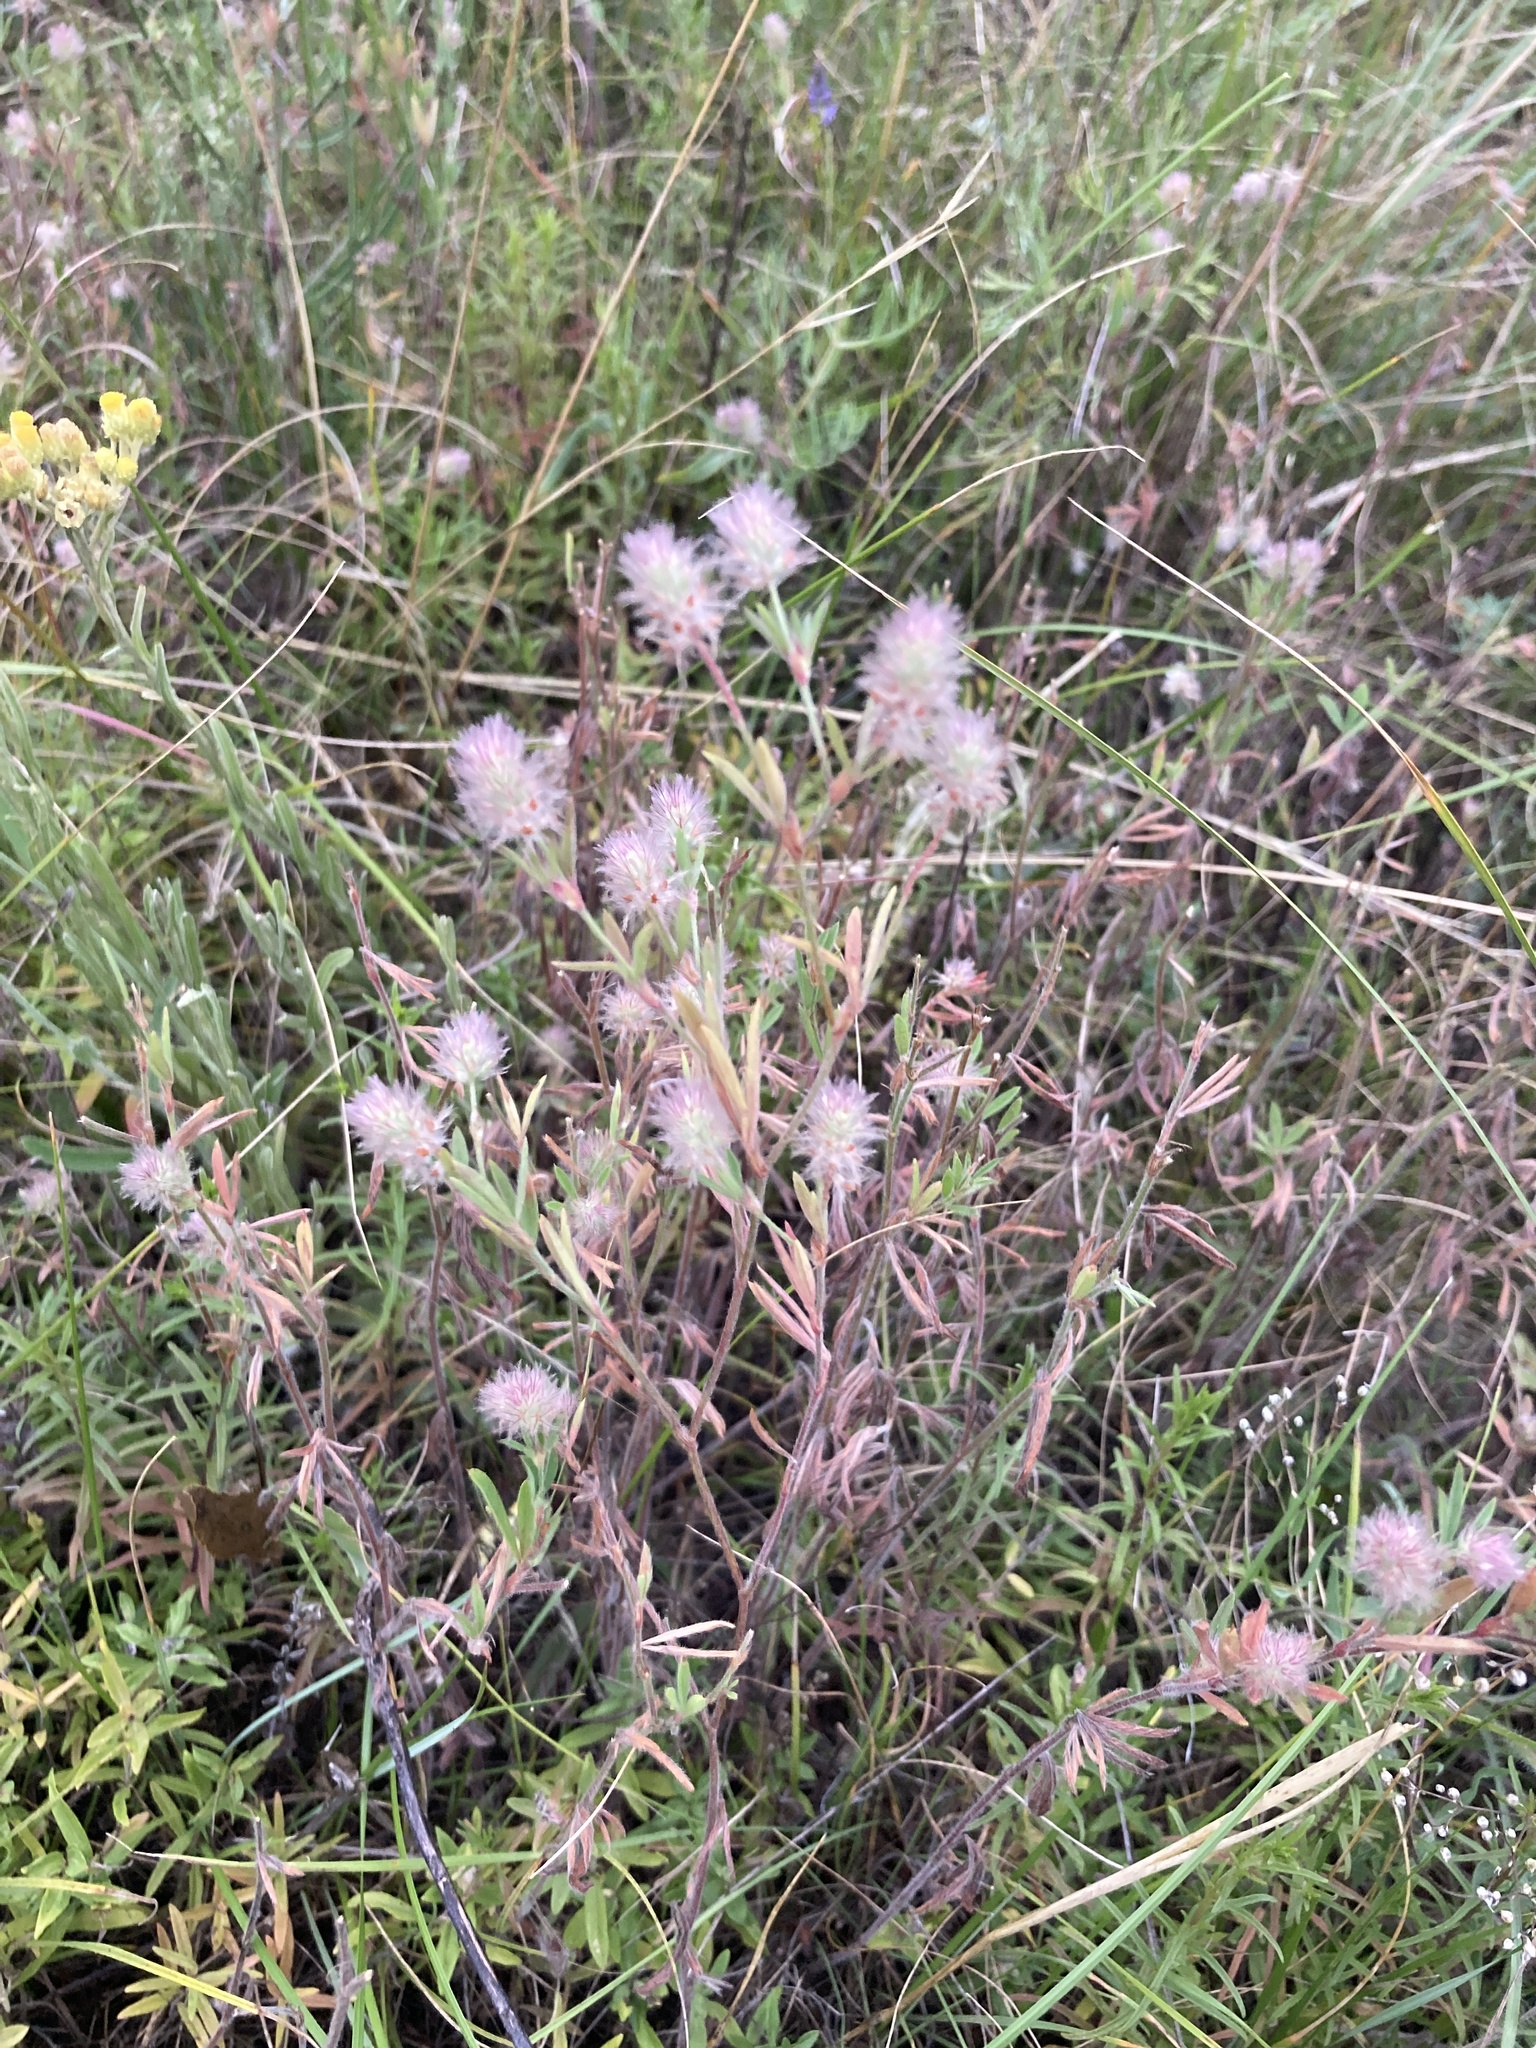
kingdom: Plantae
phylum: Tracheophyta
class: Magnoliopsida
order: Fabales
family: Fabaceae
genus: Trifolium
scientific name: Trifolium arvense
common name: Hare's-foot clover
